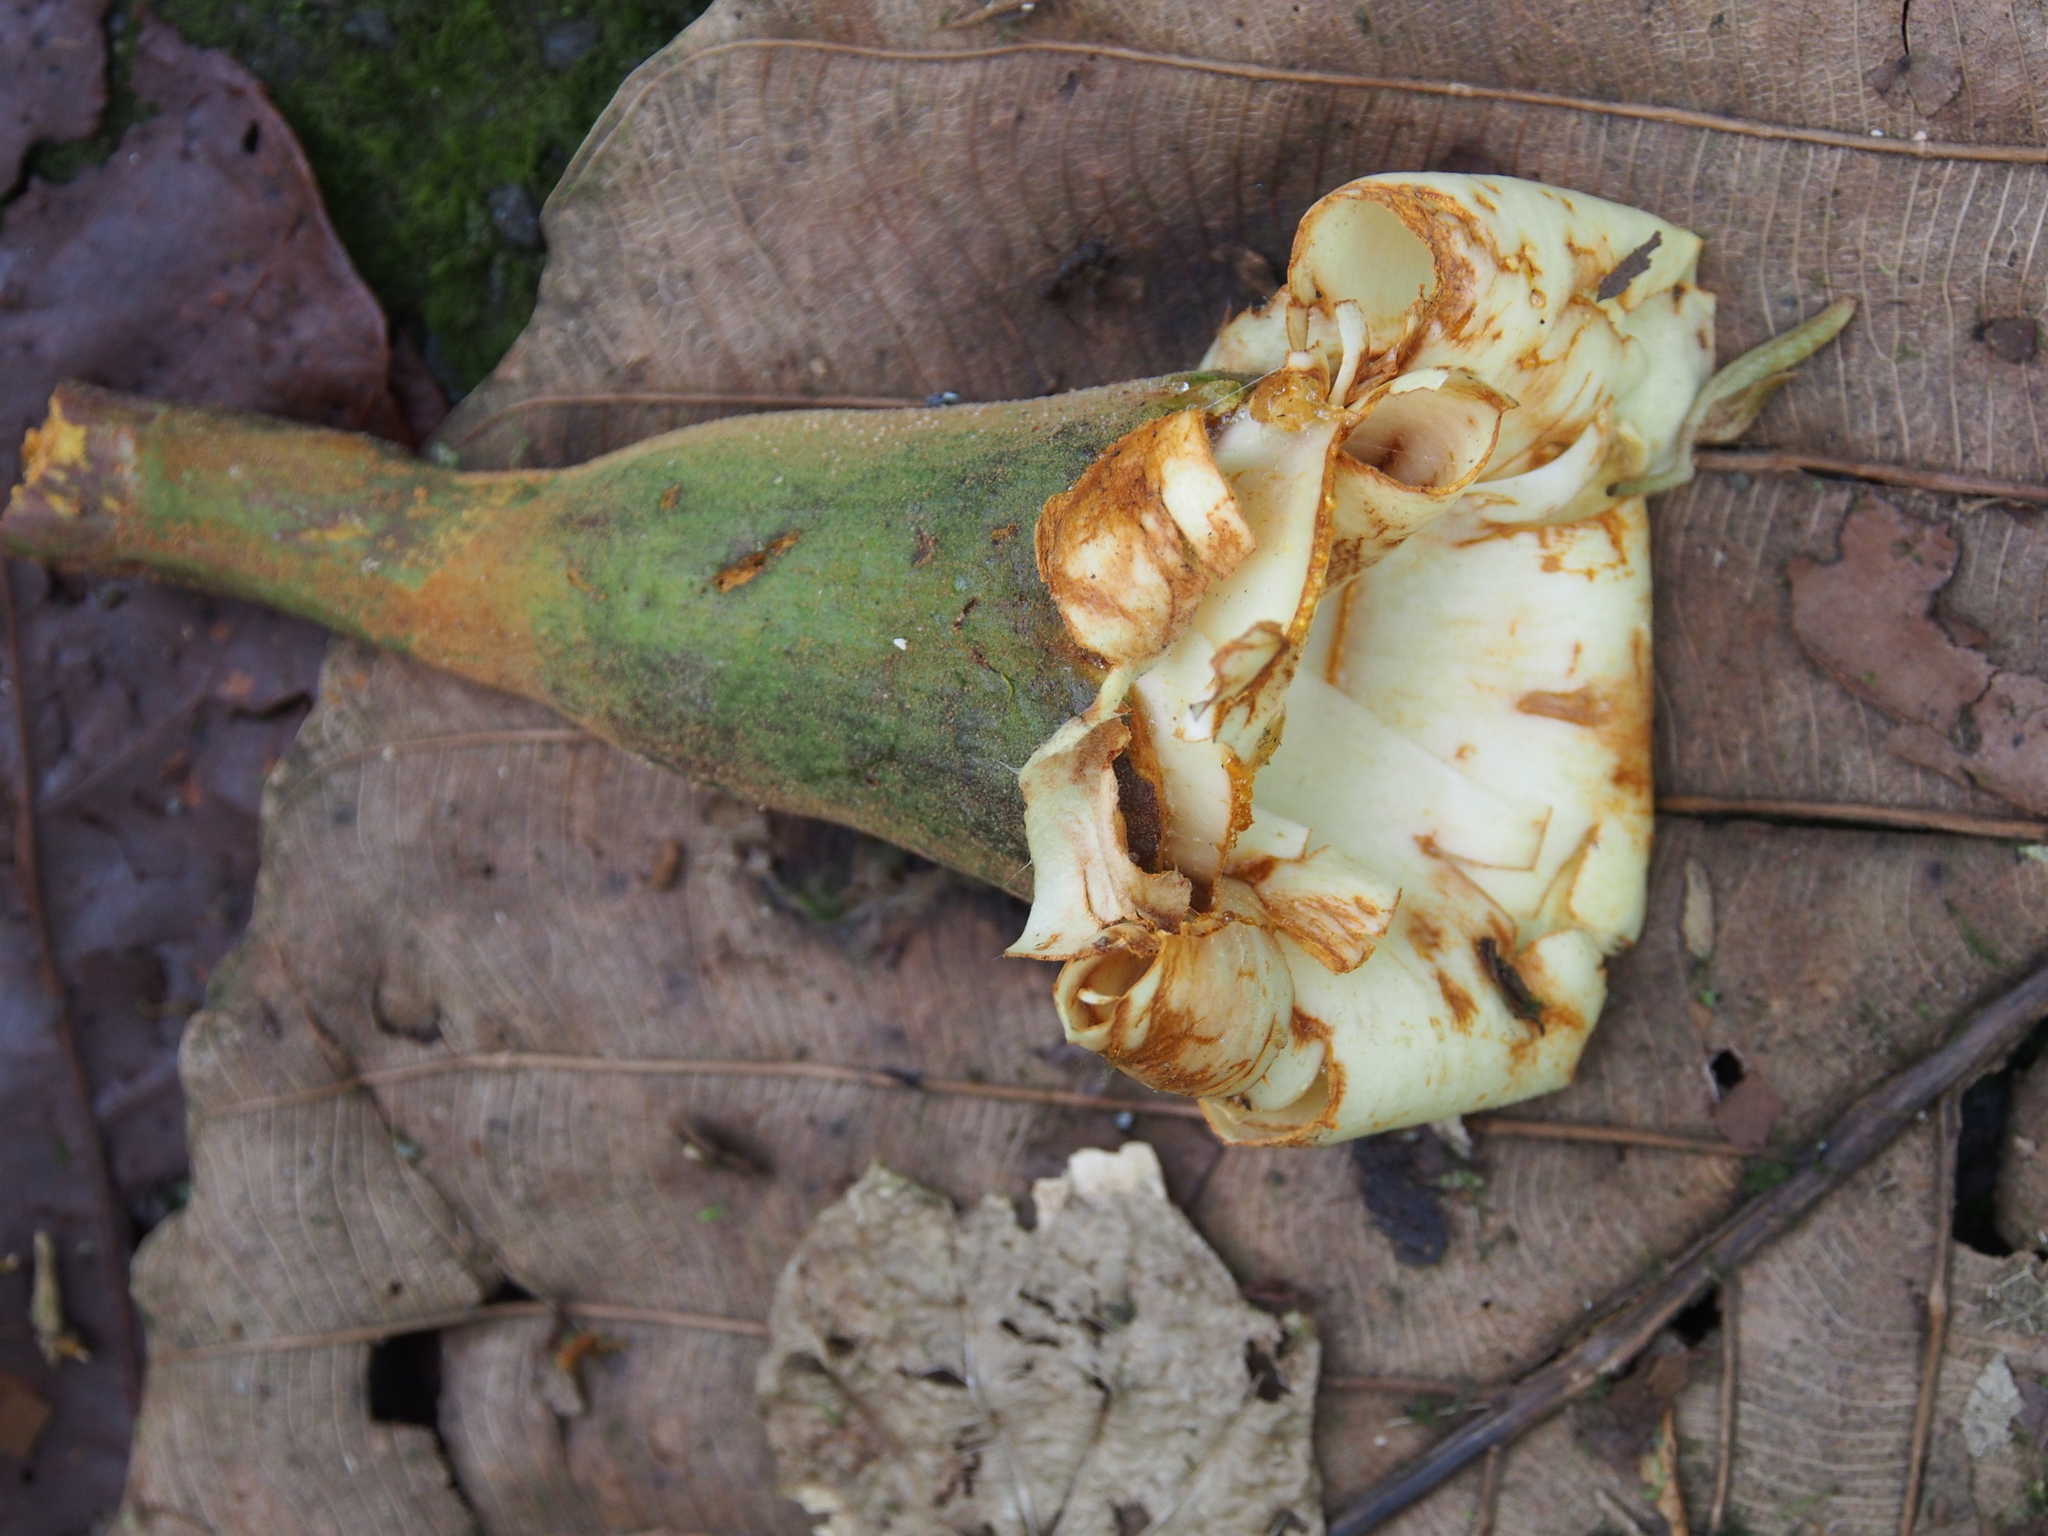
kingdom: Plantae
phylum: Tracheophyta
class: Magnoliopsida
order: Malvales
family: Malvaceae
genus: Ochroma
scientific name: Ochroma pyramidale
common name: Balsa
